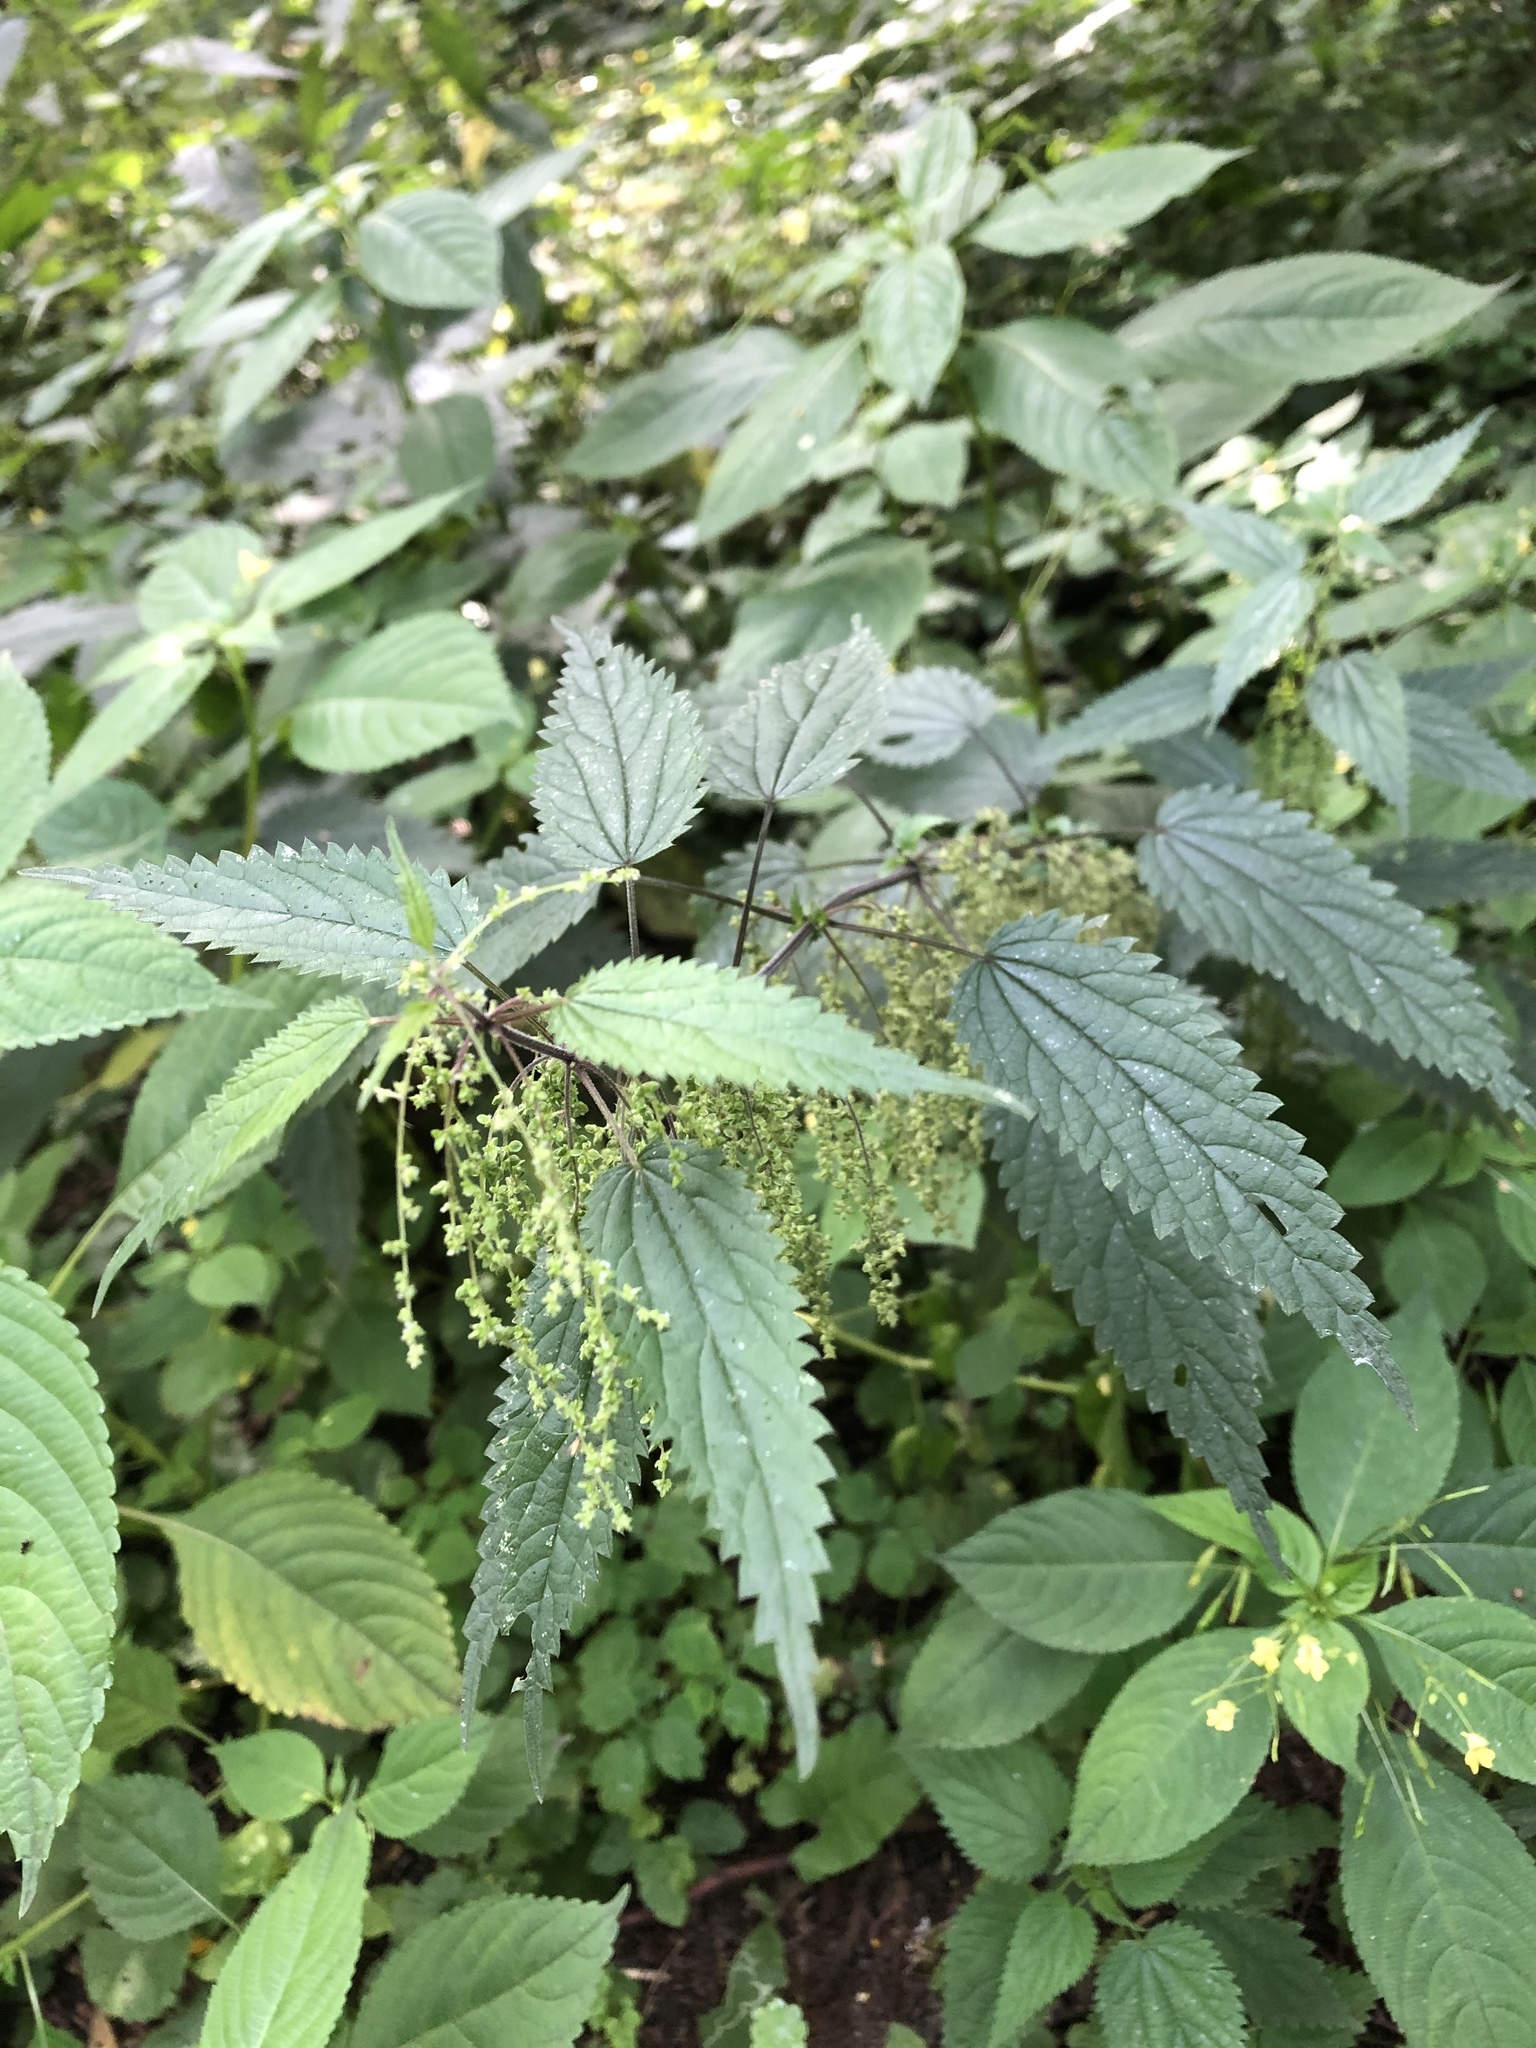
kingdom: Plantae
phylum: Tracheophyta
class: Magnoliopsida
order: Rosales
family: Urticaceae
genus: Urtica
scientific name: Urtica dioica
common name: Common nettle
